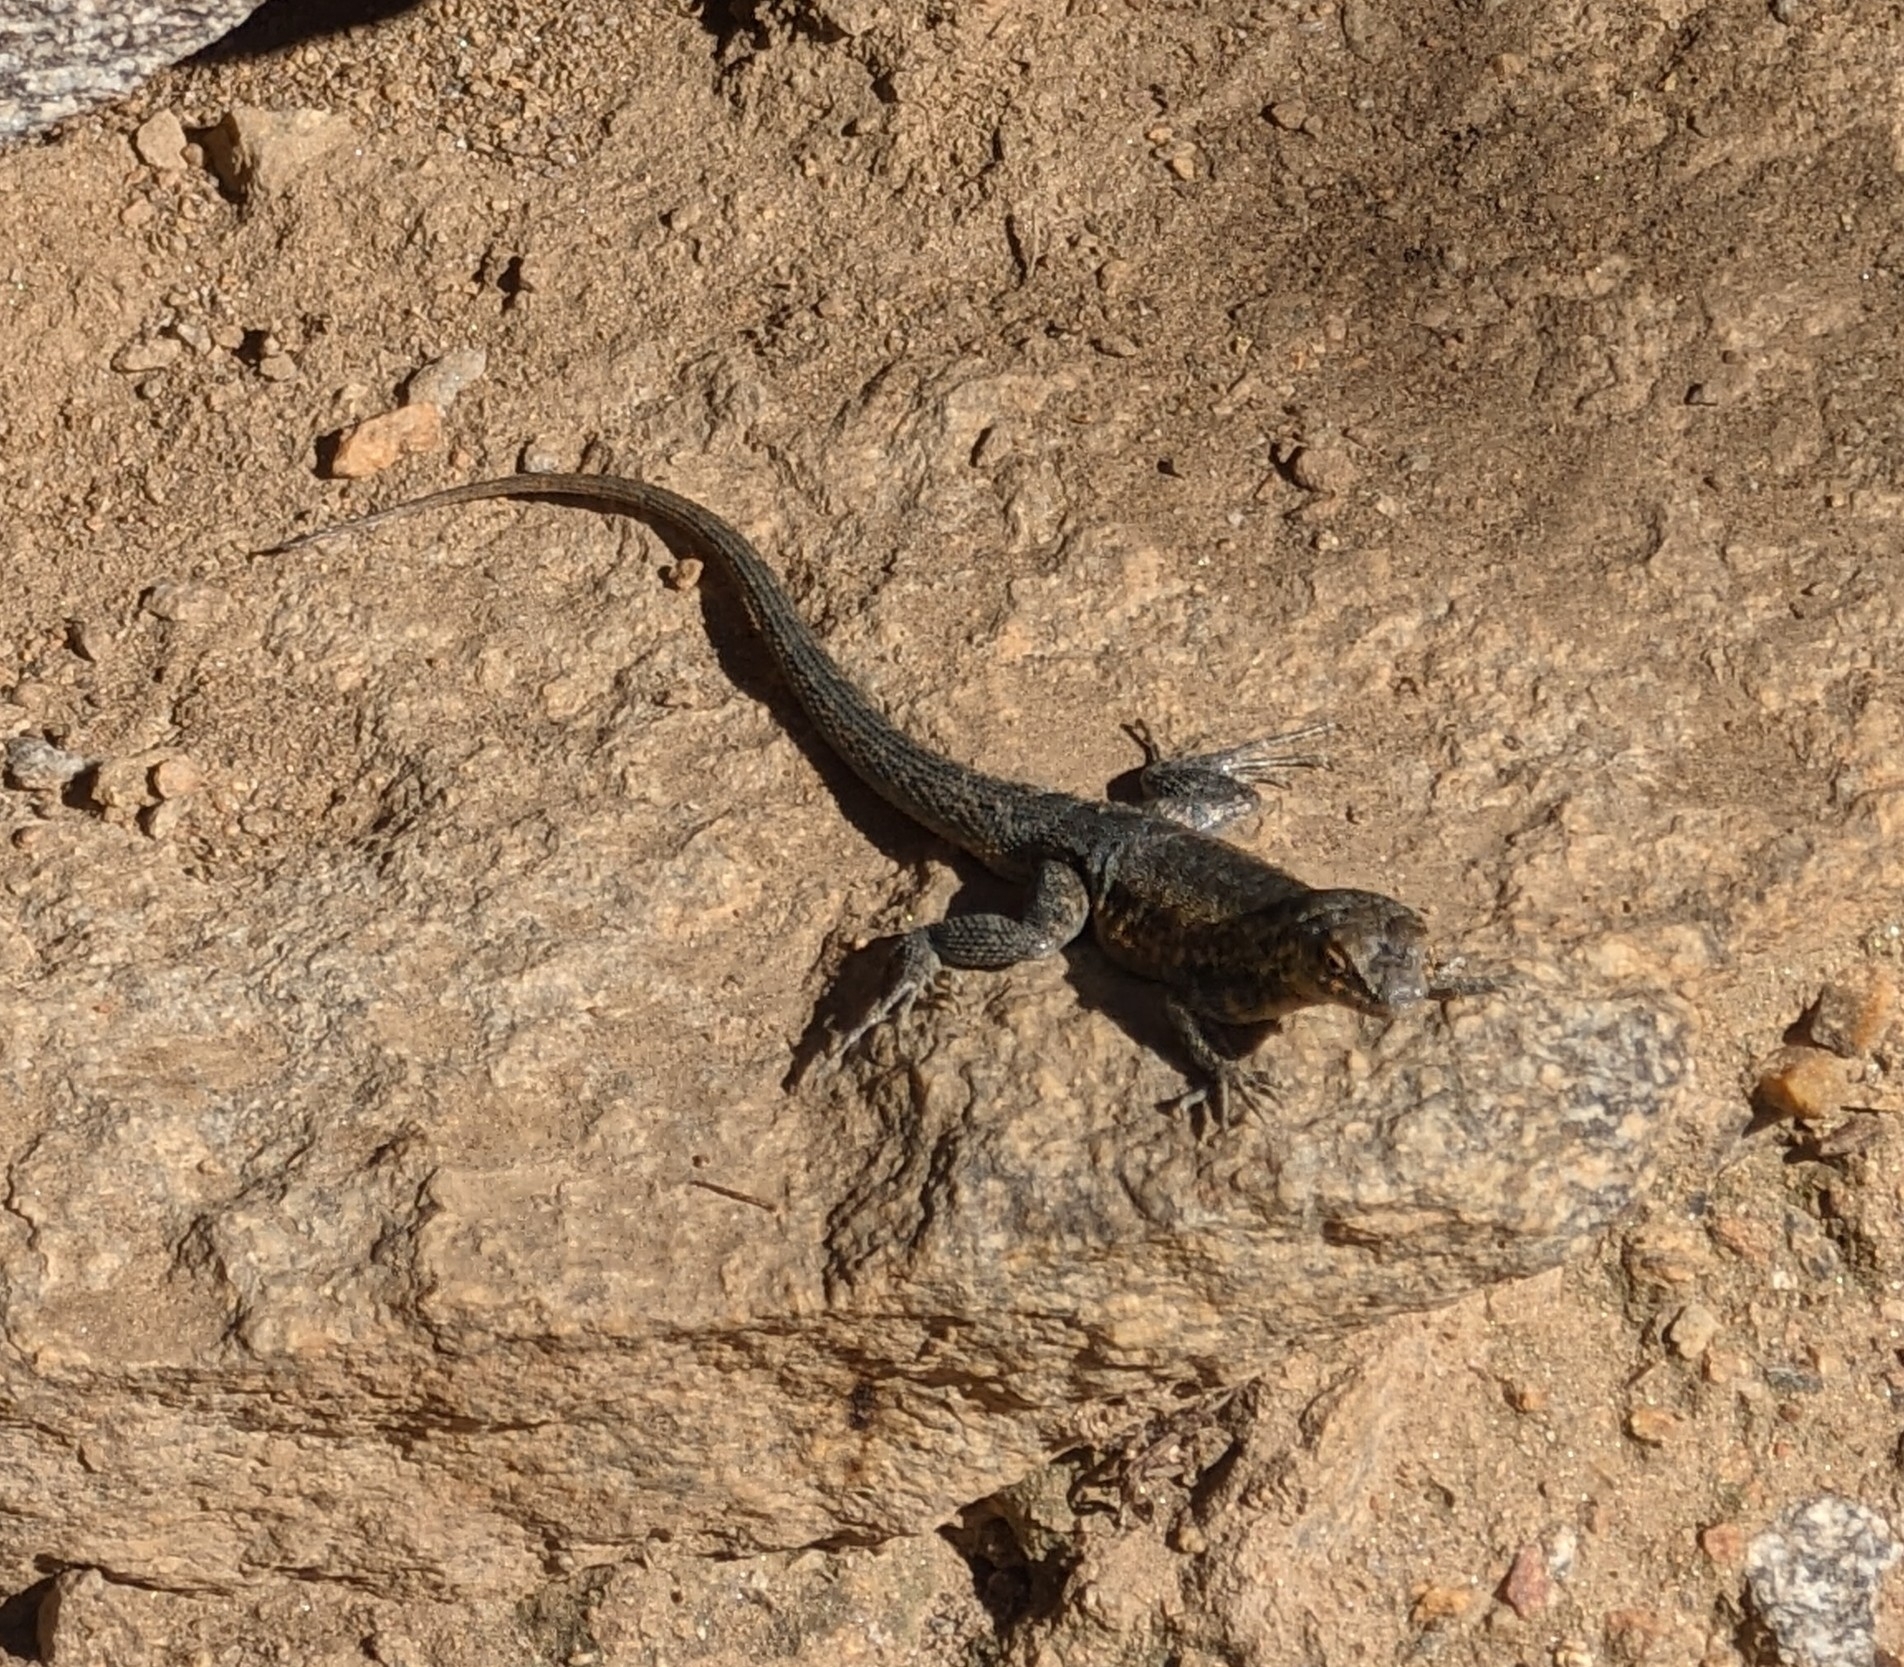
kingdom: Animalia
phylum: Chordata
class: Squamata
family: Phrynosomatidae
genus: Uta
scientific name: Uta stansburiana
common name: Side-blotched lizard
